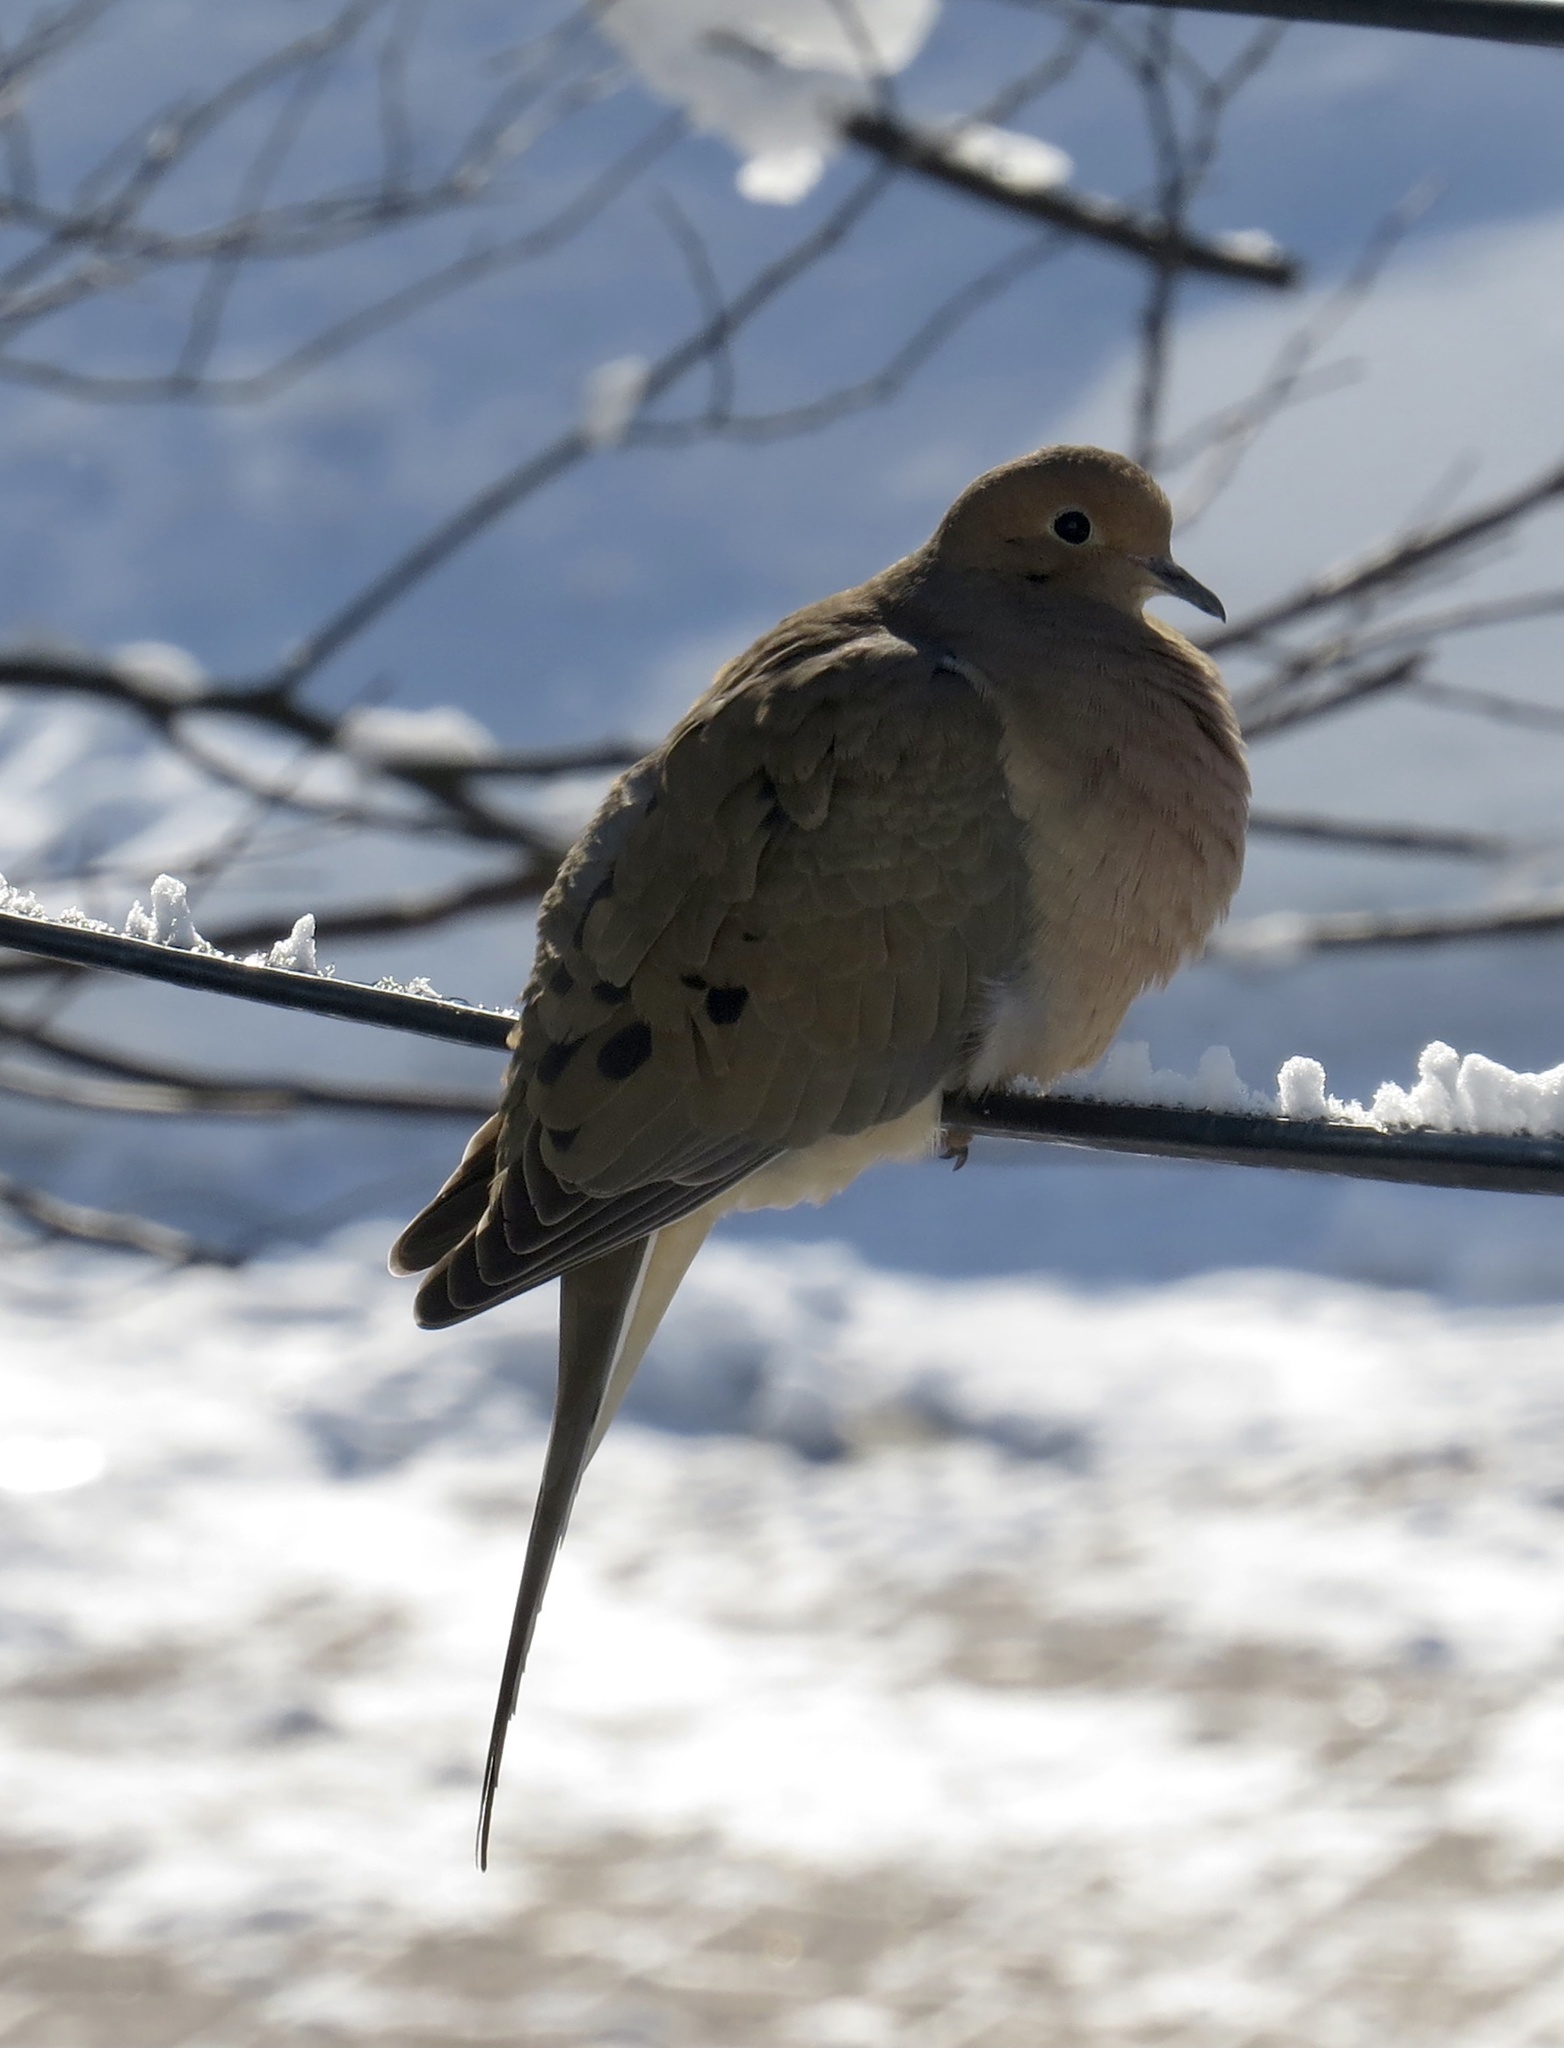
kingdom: Animalia
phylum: Chordata
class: Aves
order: Columbiformes
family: Columbidae
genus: Zenaida
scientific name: Zenaida macroura
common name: Mourning dove
